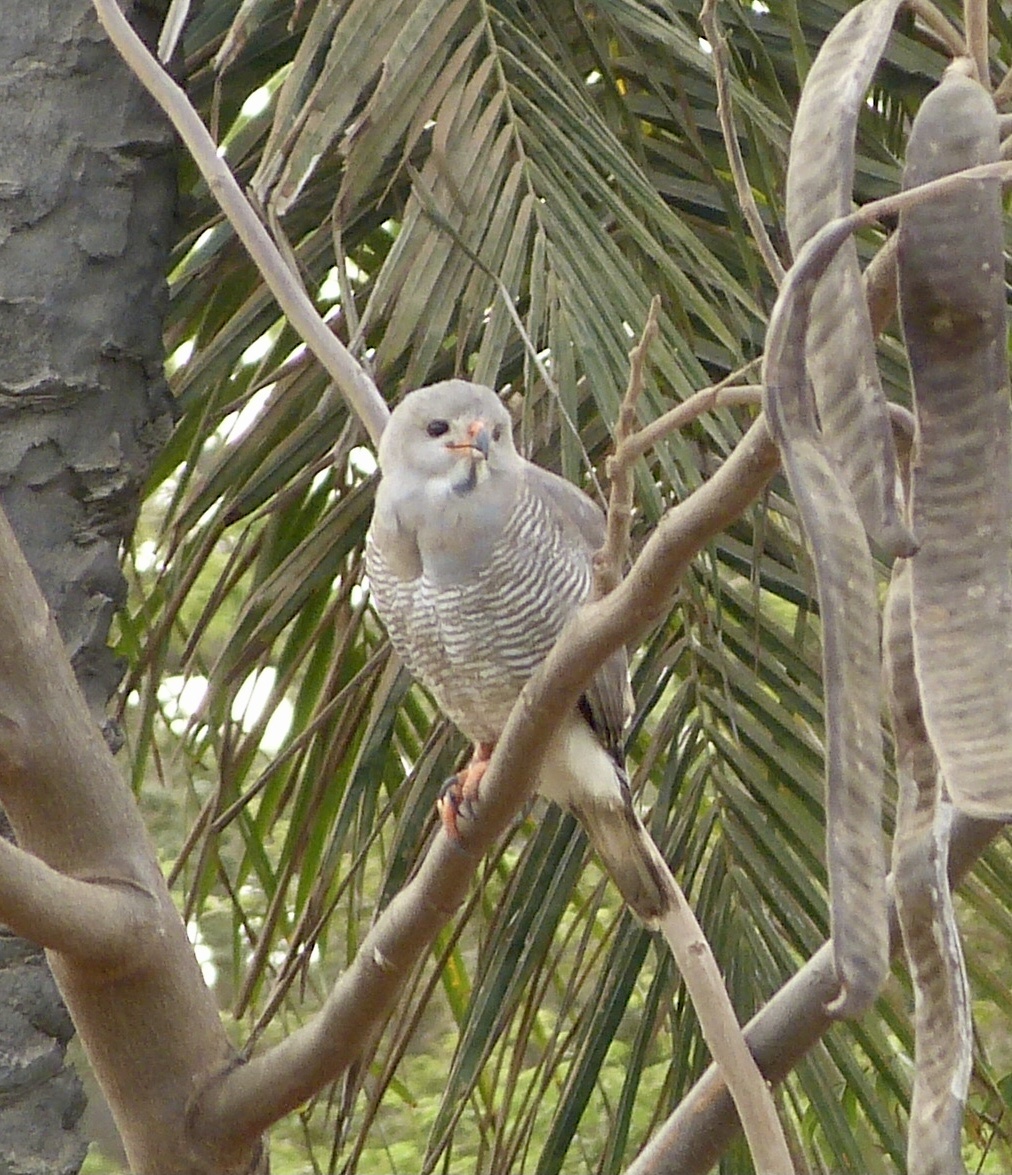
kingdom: Animalia
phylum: Chordata
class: Aves
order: Accipitriformes
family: Accipitridae
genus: Kaupifalco
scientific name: Kaupifalco monogrammicus
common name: Lizard buzzard
